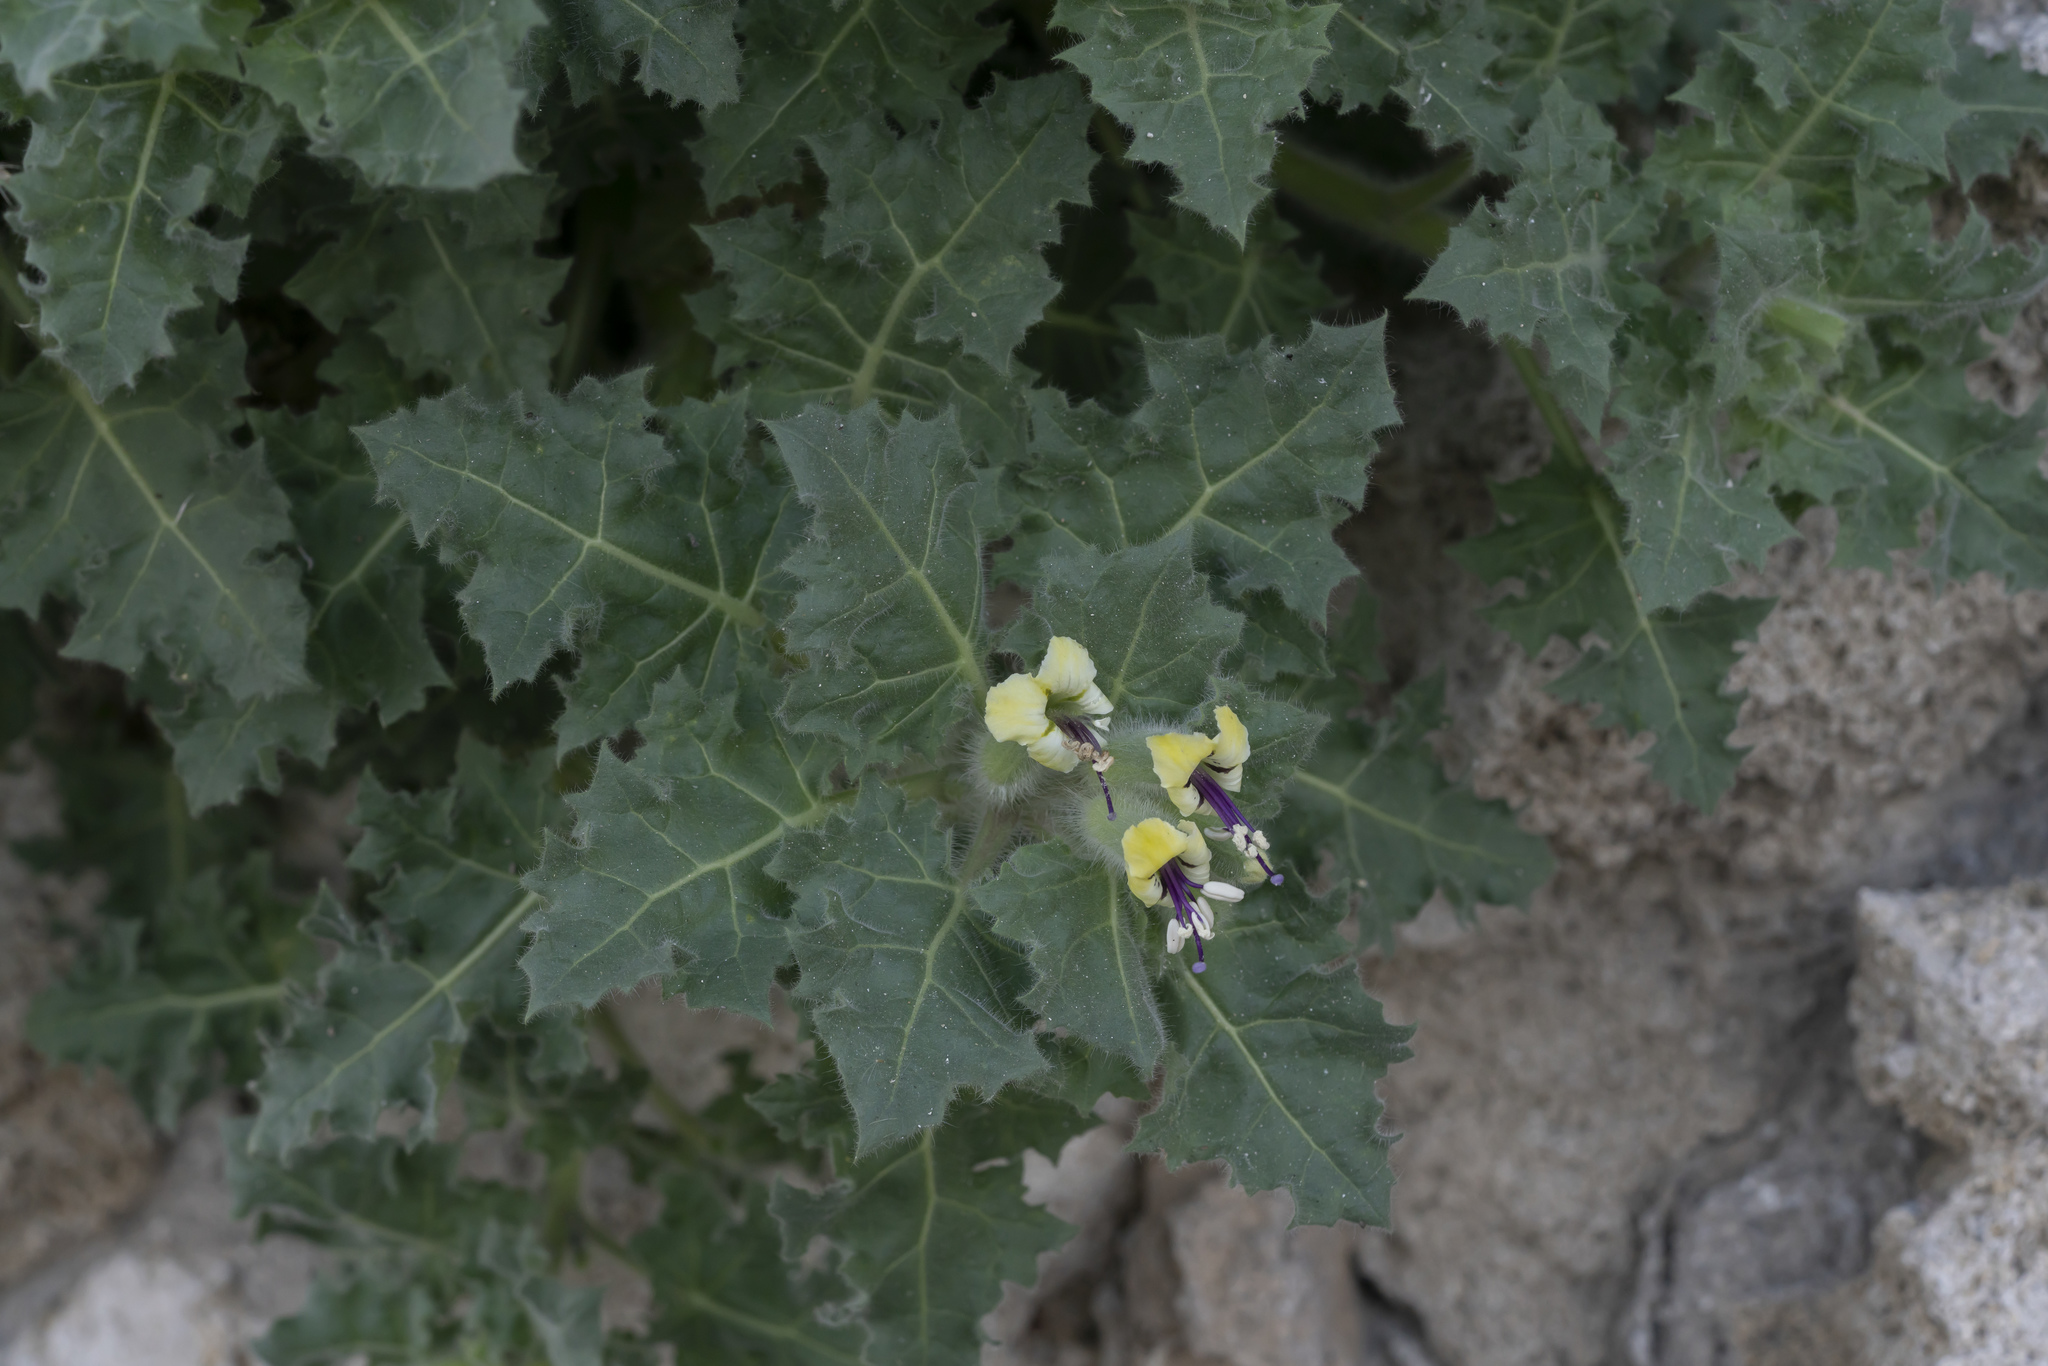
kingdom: Plantae
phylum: Tracheophyta
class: Magnoliopsida
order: Solanales
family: Solanaceae
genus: Hyoscyamus
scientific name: Hyoscyamus aureus
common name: Golden henbane
